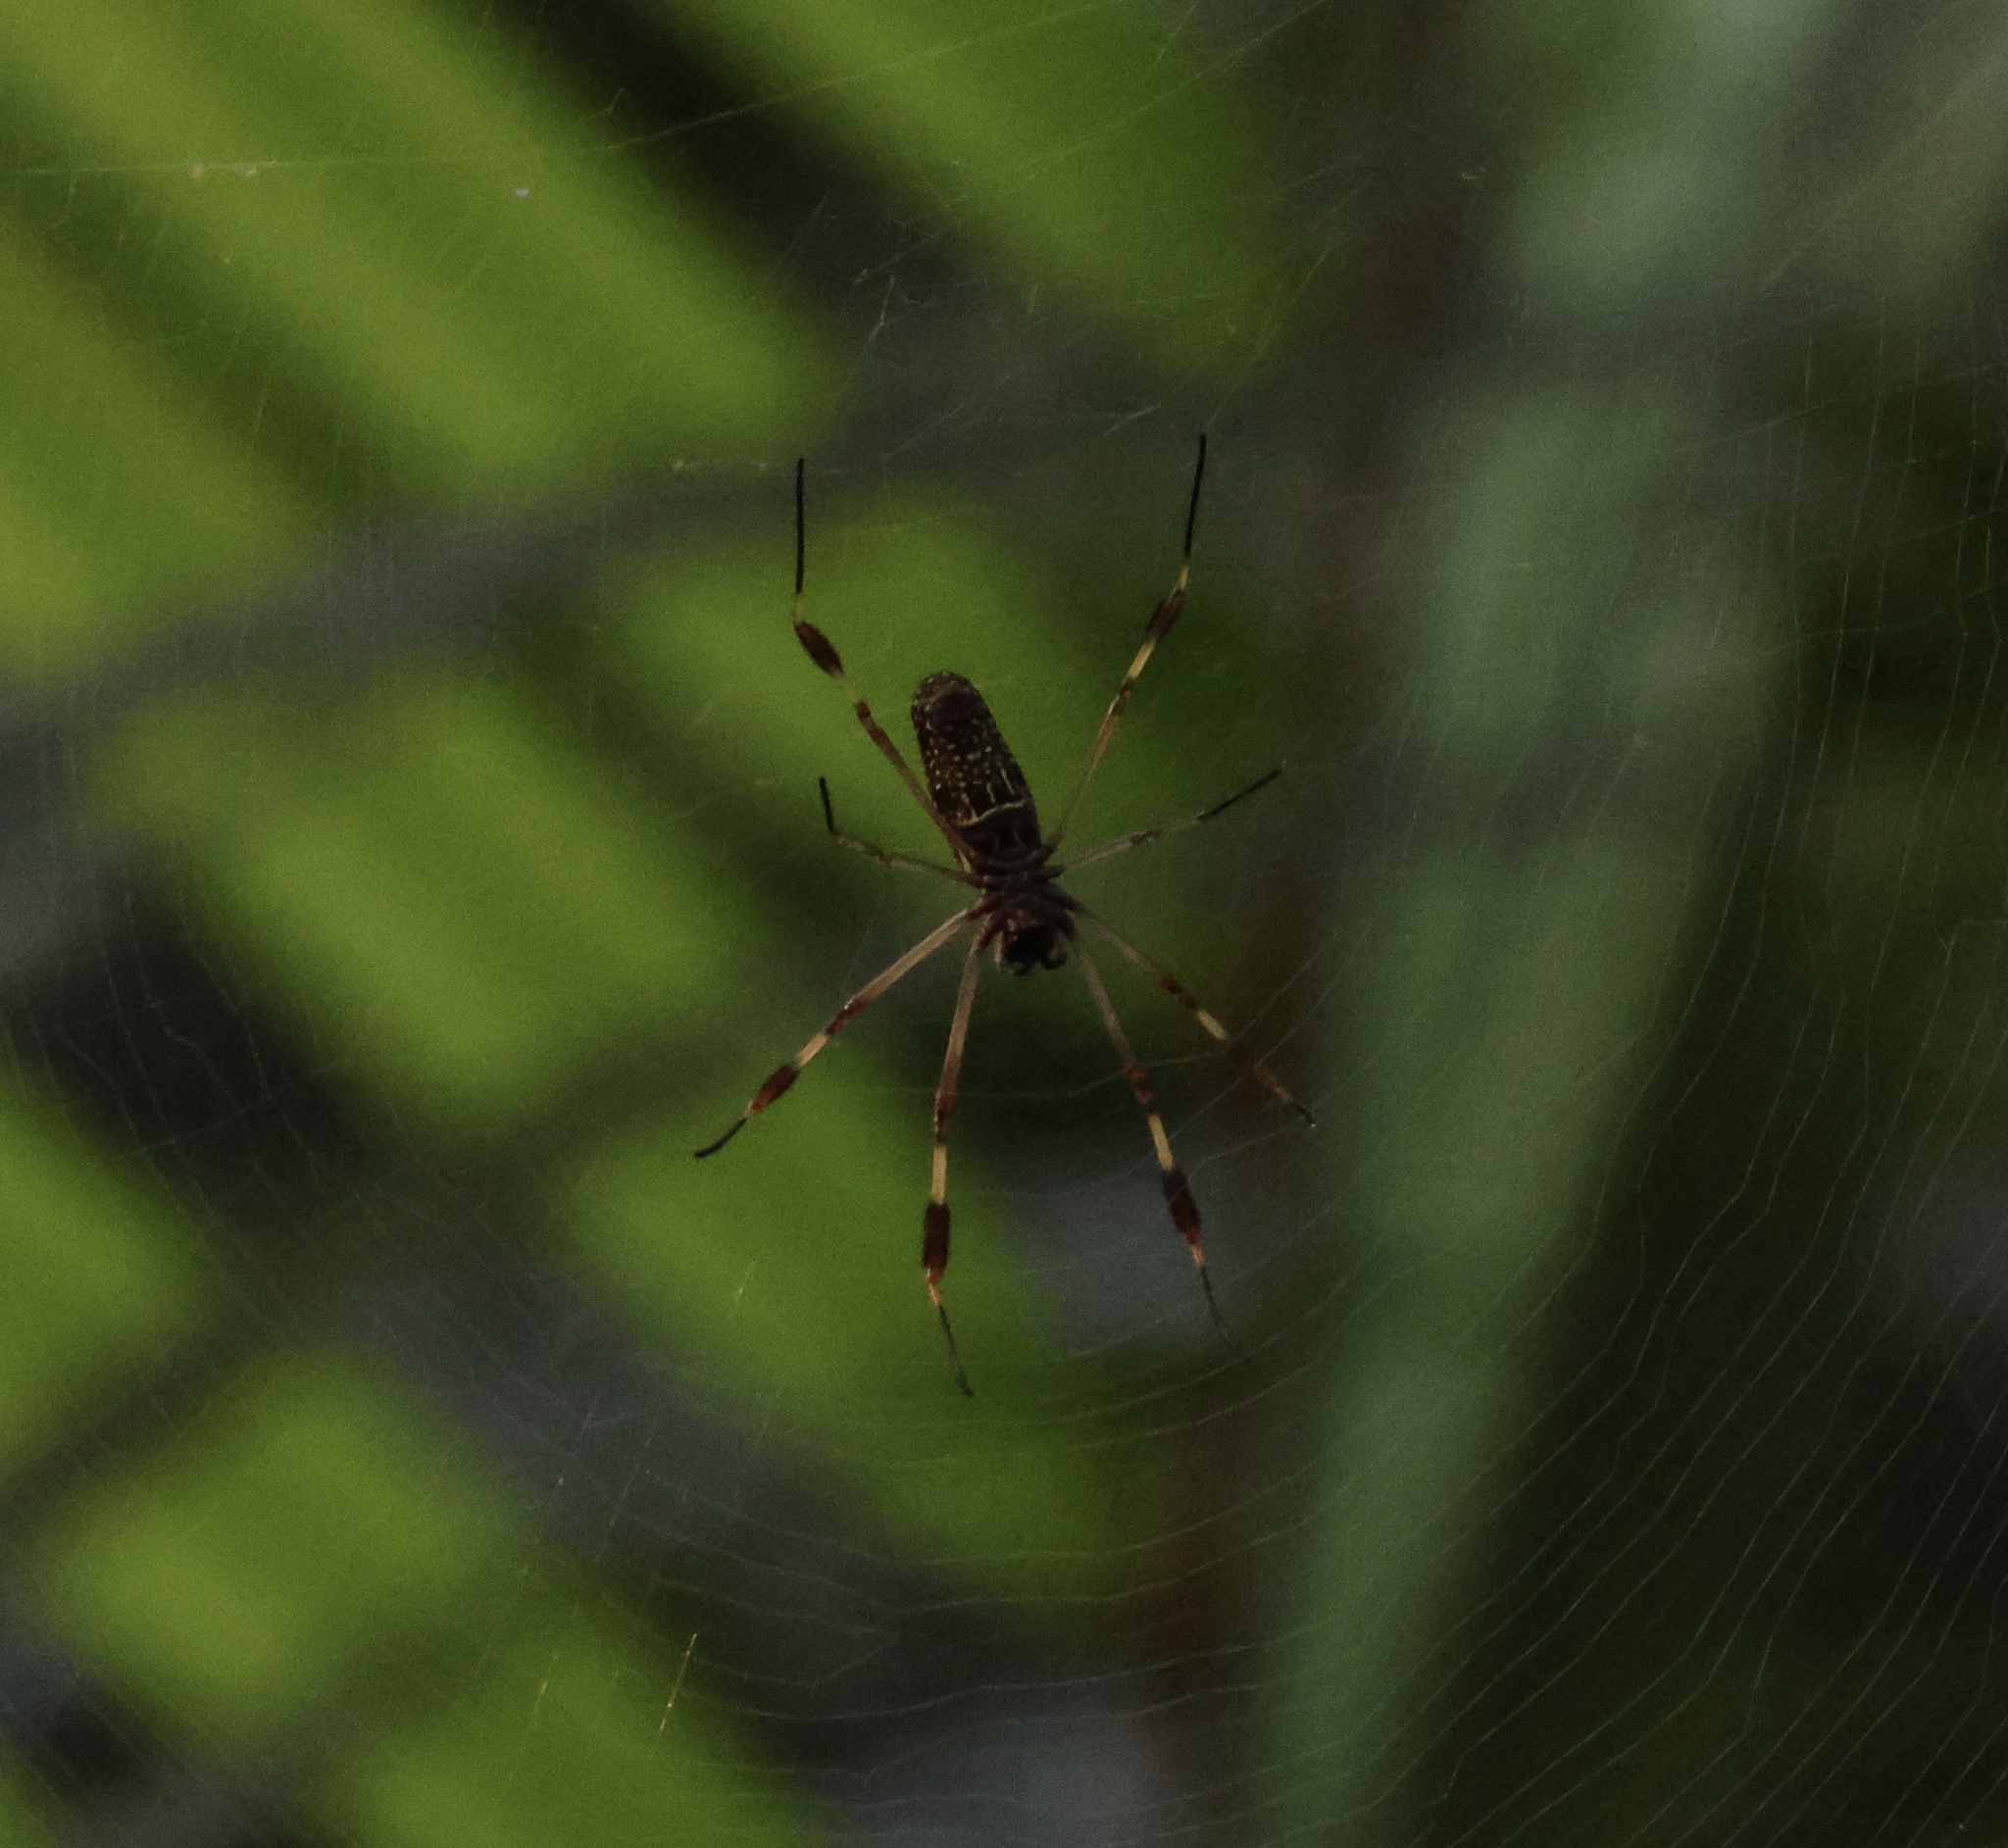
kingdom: Animalia
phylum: Arthropoda
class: Arachnida
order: Araneae
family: Araneidae
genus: Trichonephila
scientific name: Trichonephila clavipes
